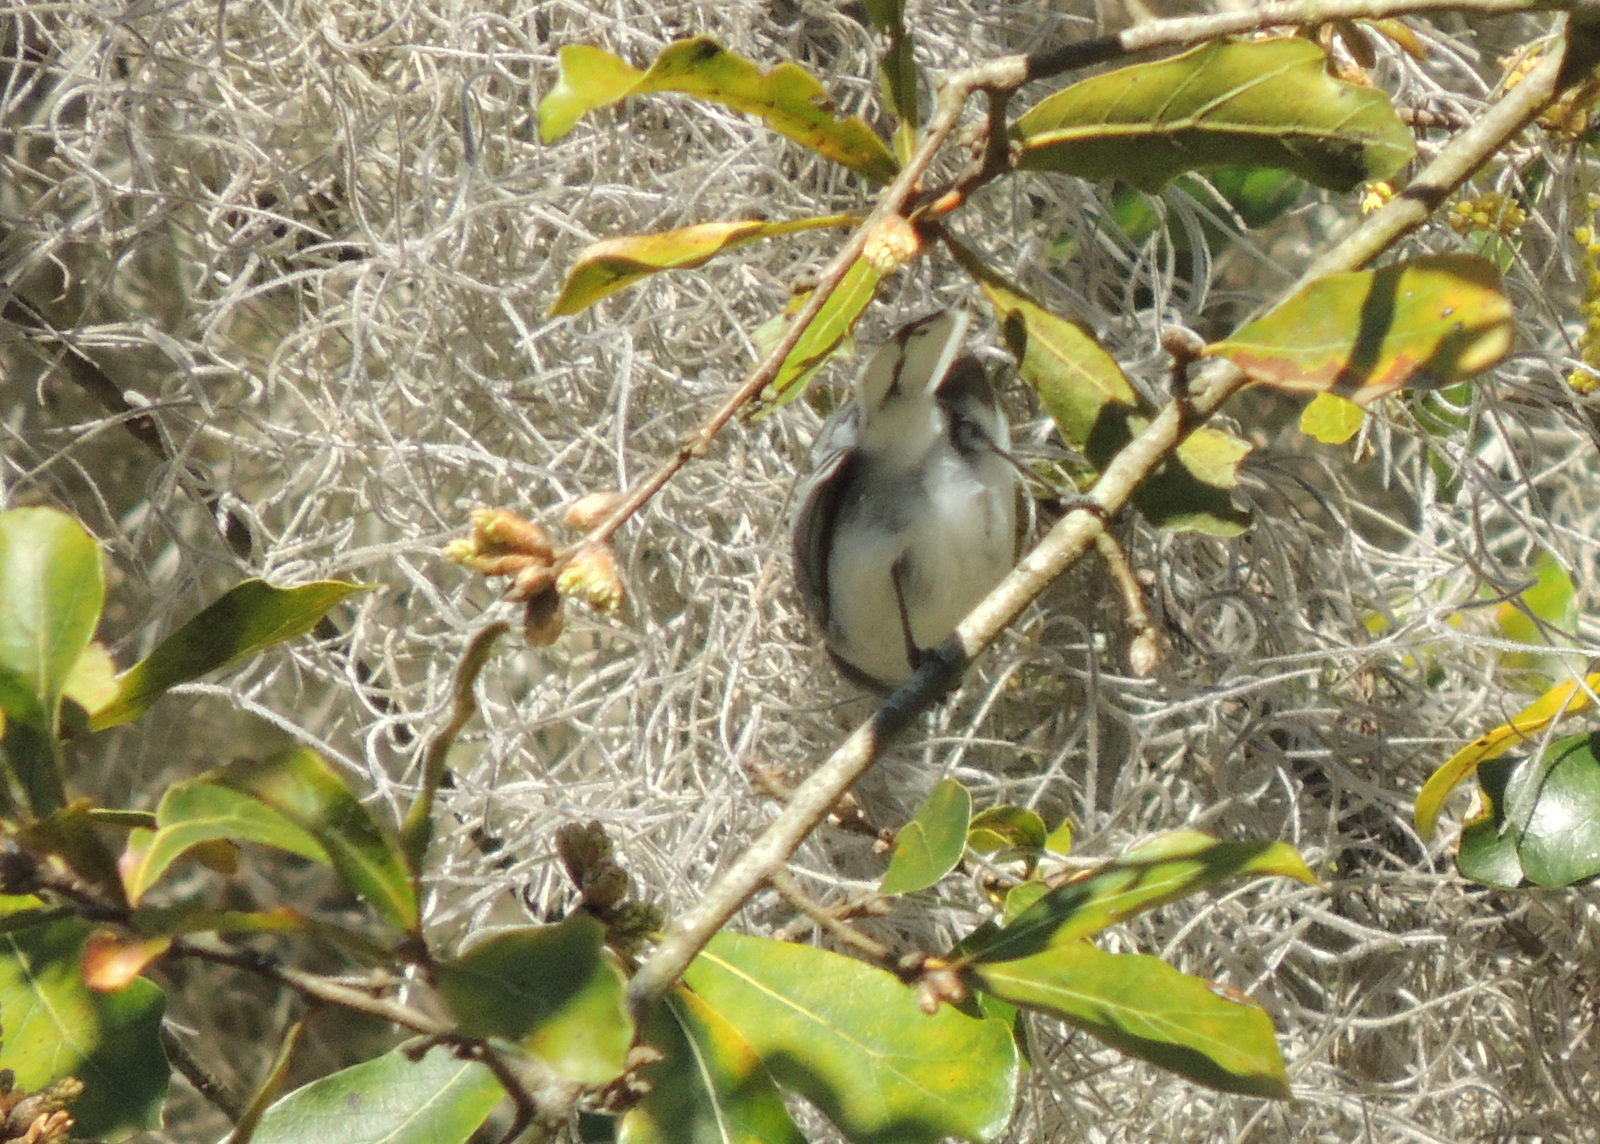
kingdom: Animalia
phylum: Chordata
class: Aves
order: Passeriformes
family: Polioptilidae
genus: Polioptila
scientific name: Polioptila caerulea
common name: Blue-gray gnatcatcher
